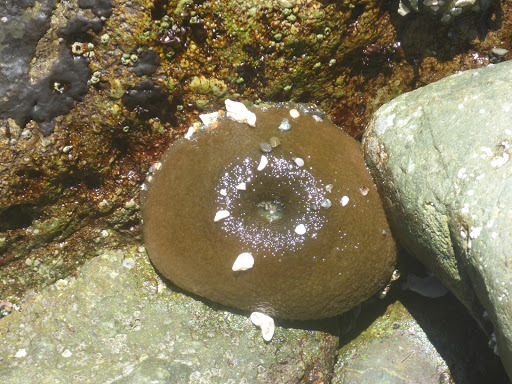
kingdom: Animalia
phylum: Cnidaria
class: Anthozoa
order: Actiniaria
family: Actiniidae
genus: Anthopleura
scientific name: Anthopleura xanthogrammica
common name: Giant green anemone
